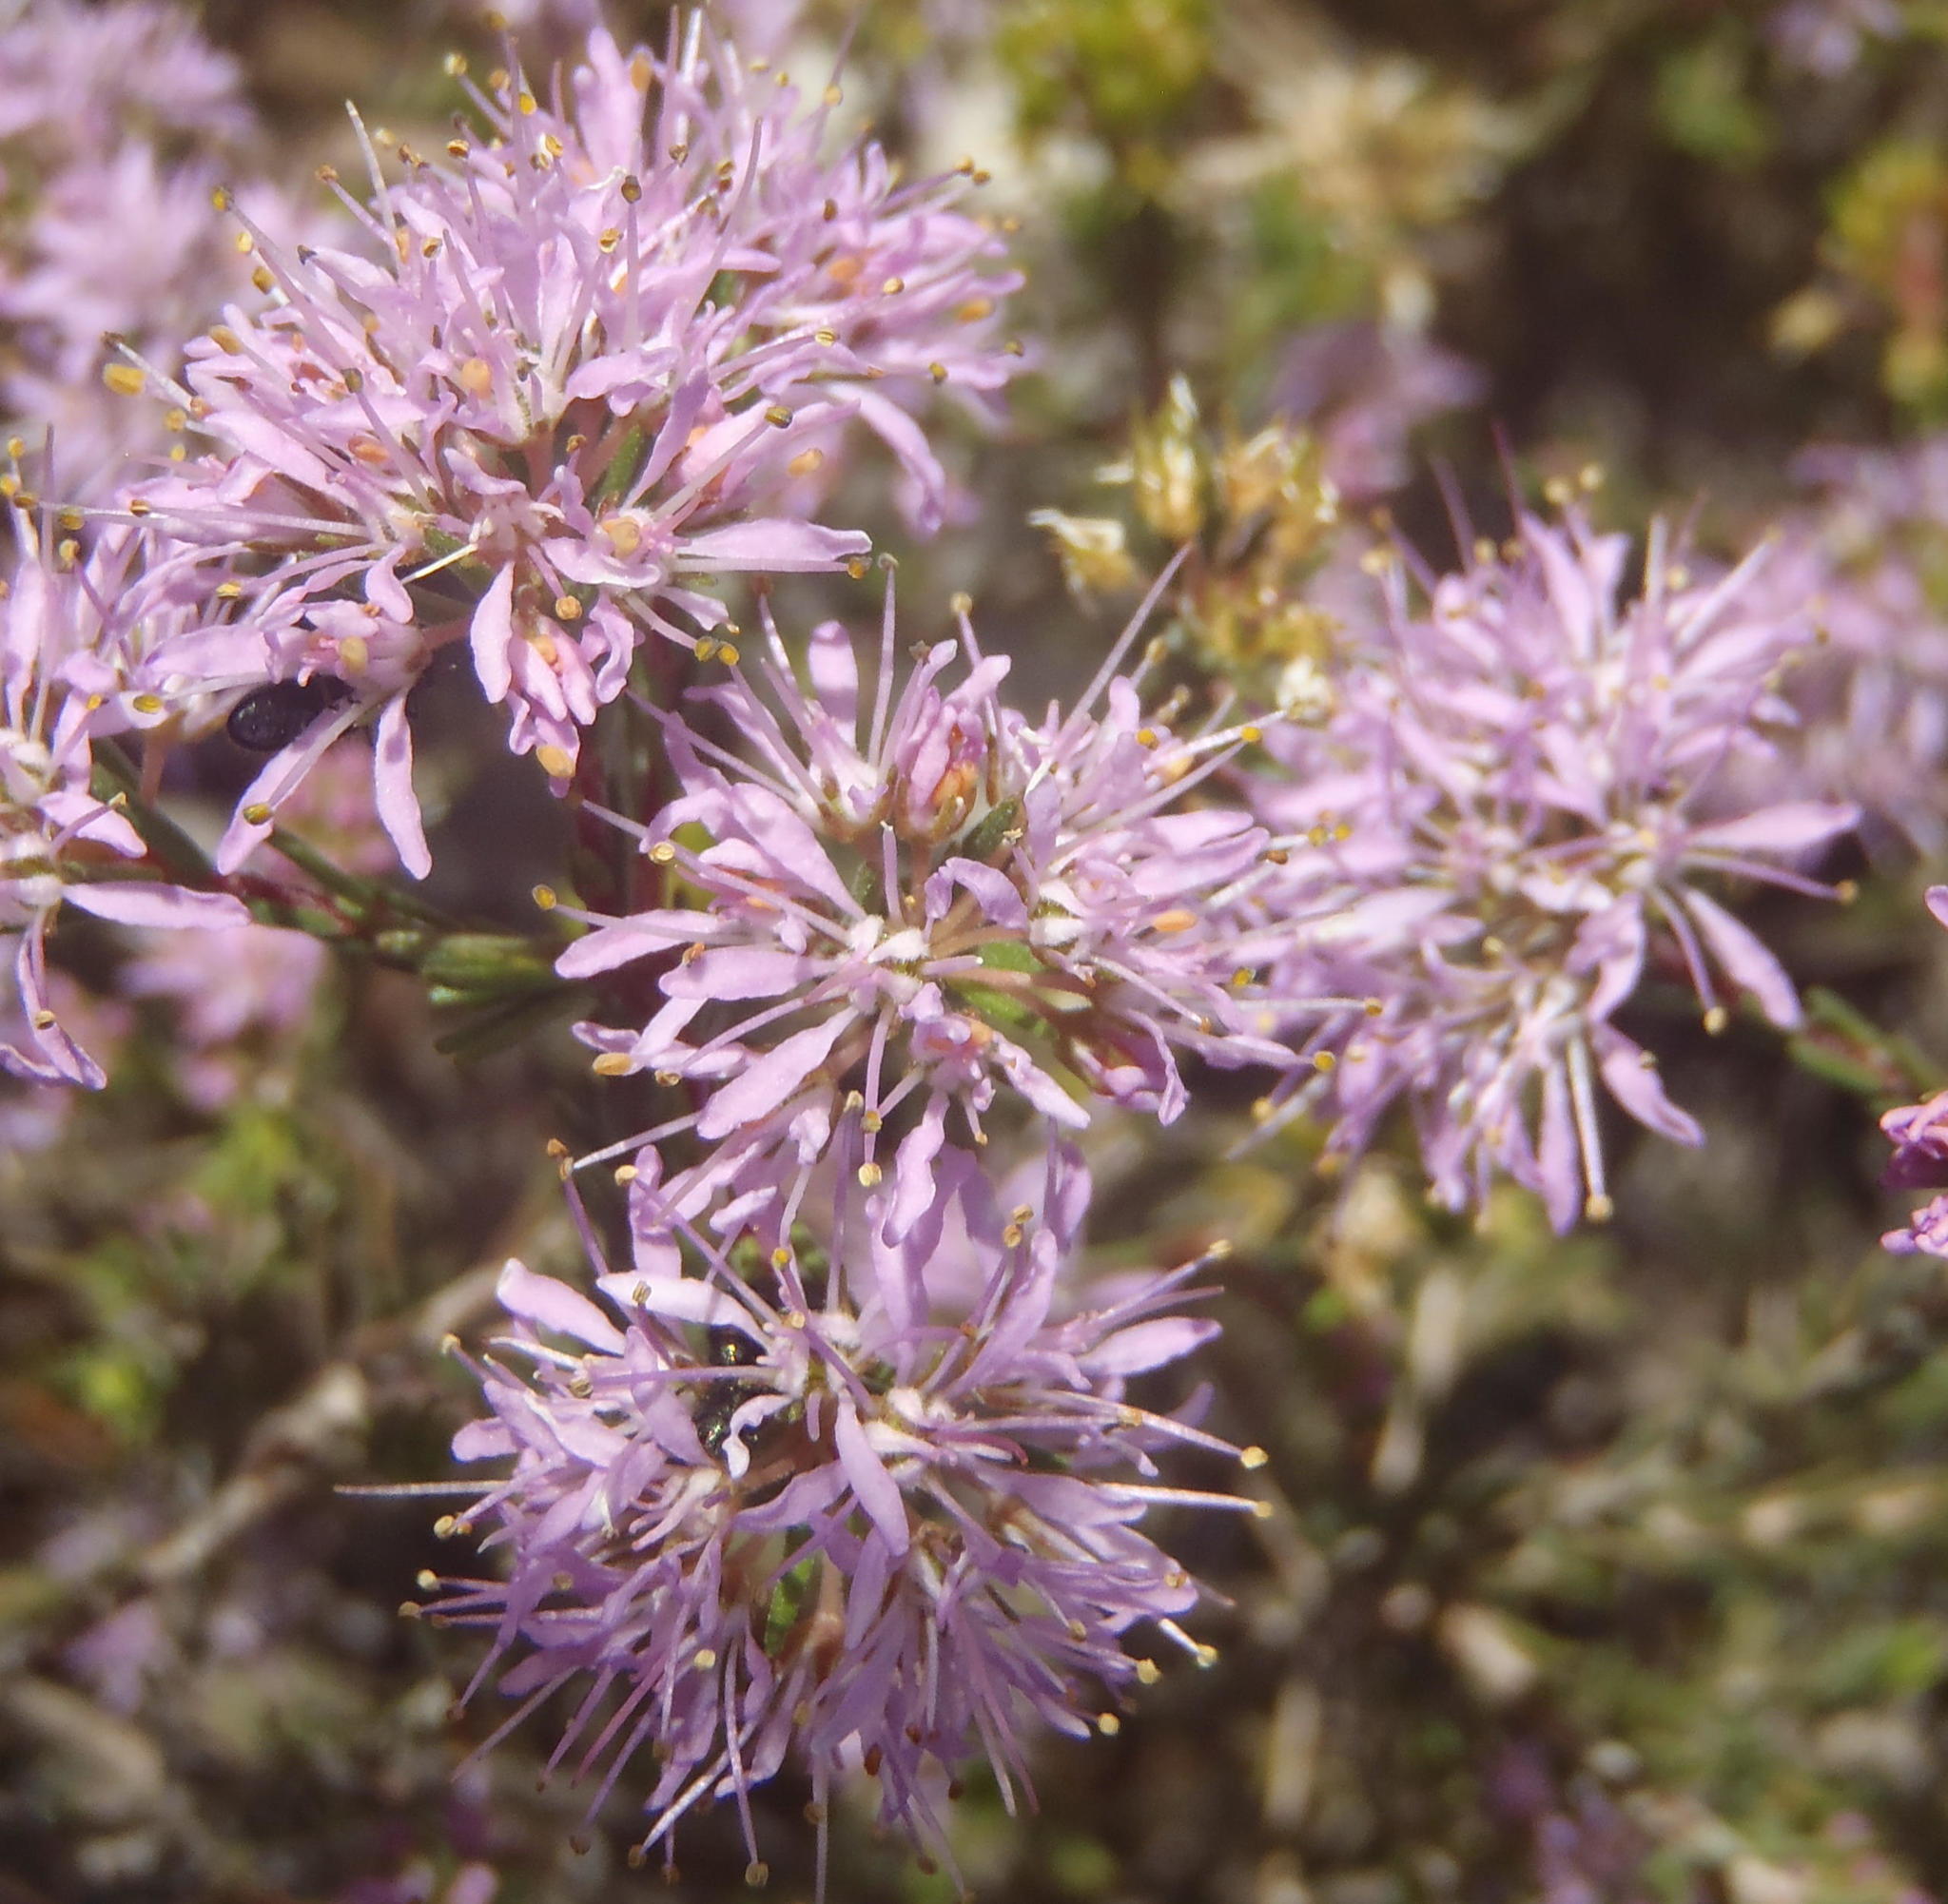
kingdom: Plantae
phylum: Tracheophyta
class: Magnoliopsida
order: Sapindales
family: Rutaceae
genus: Agathosma
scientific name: Agathosma
